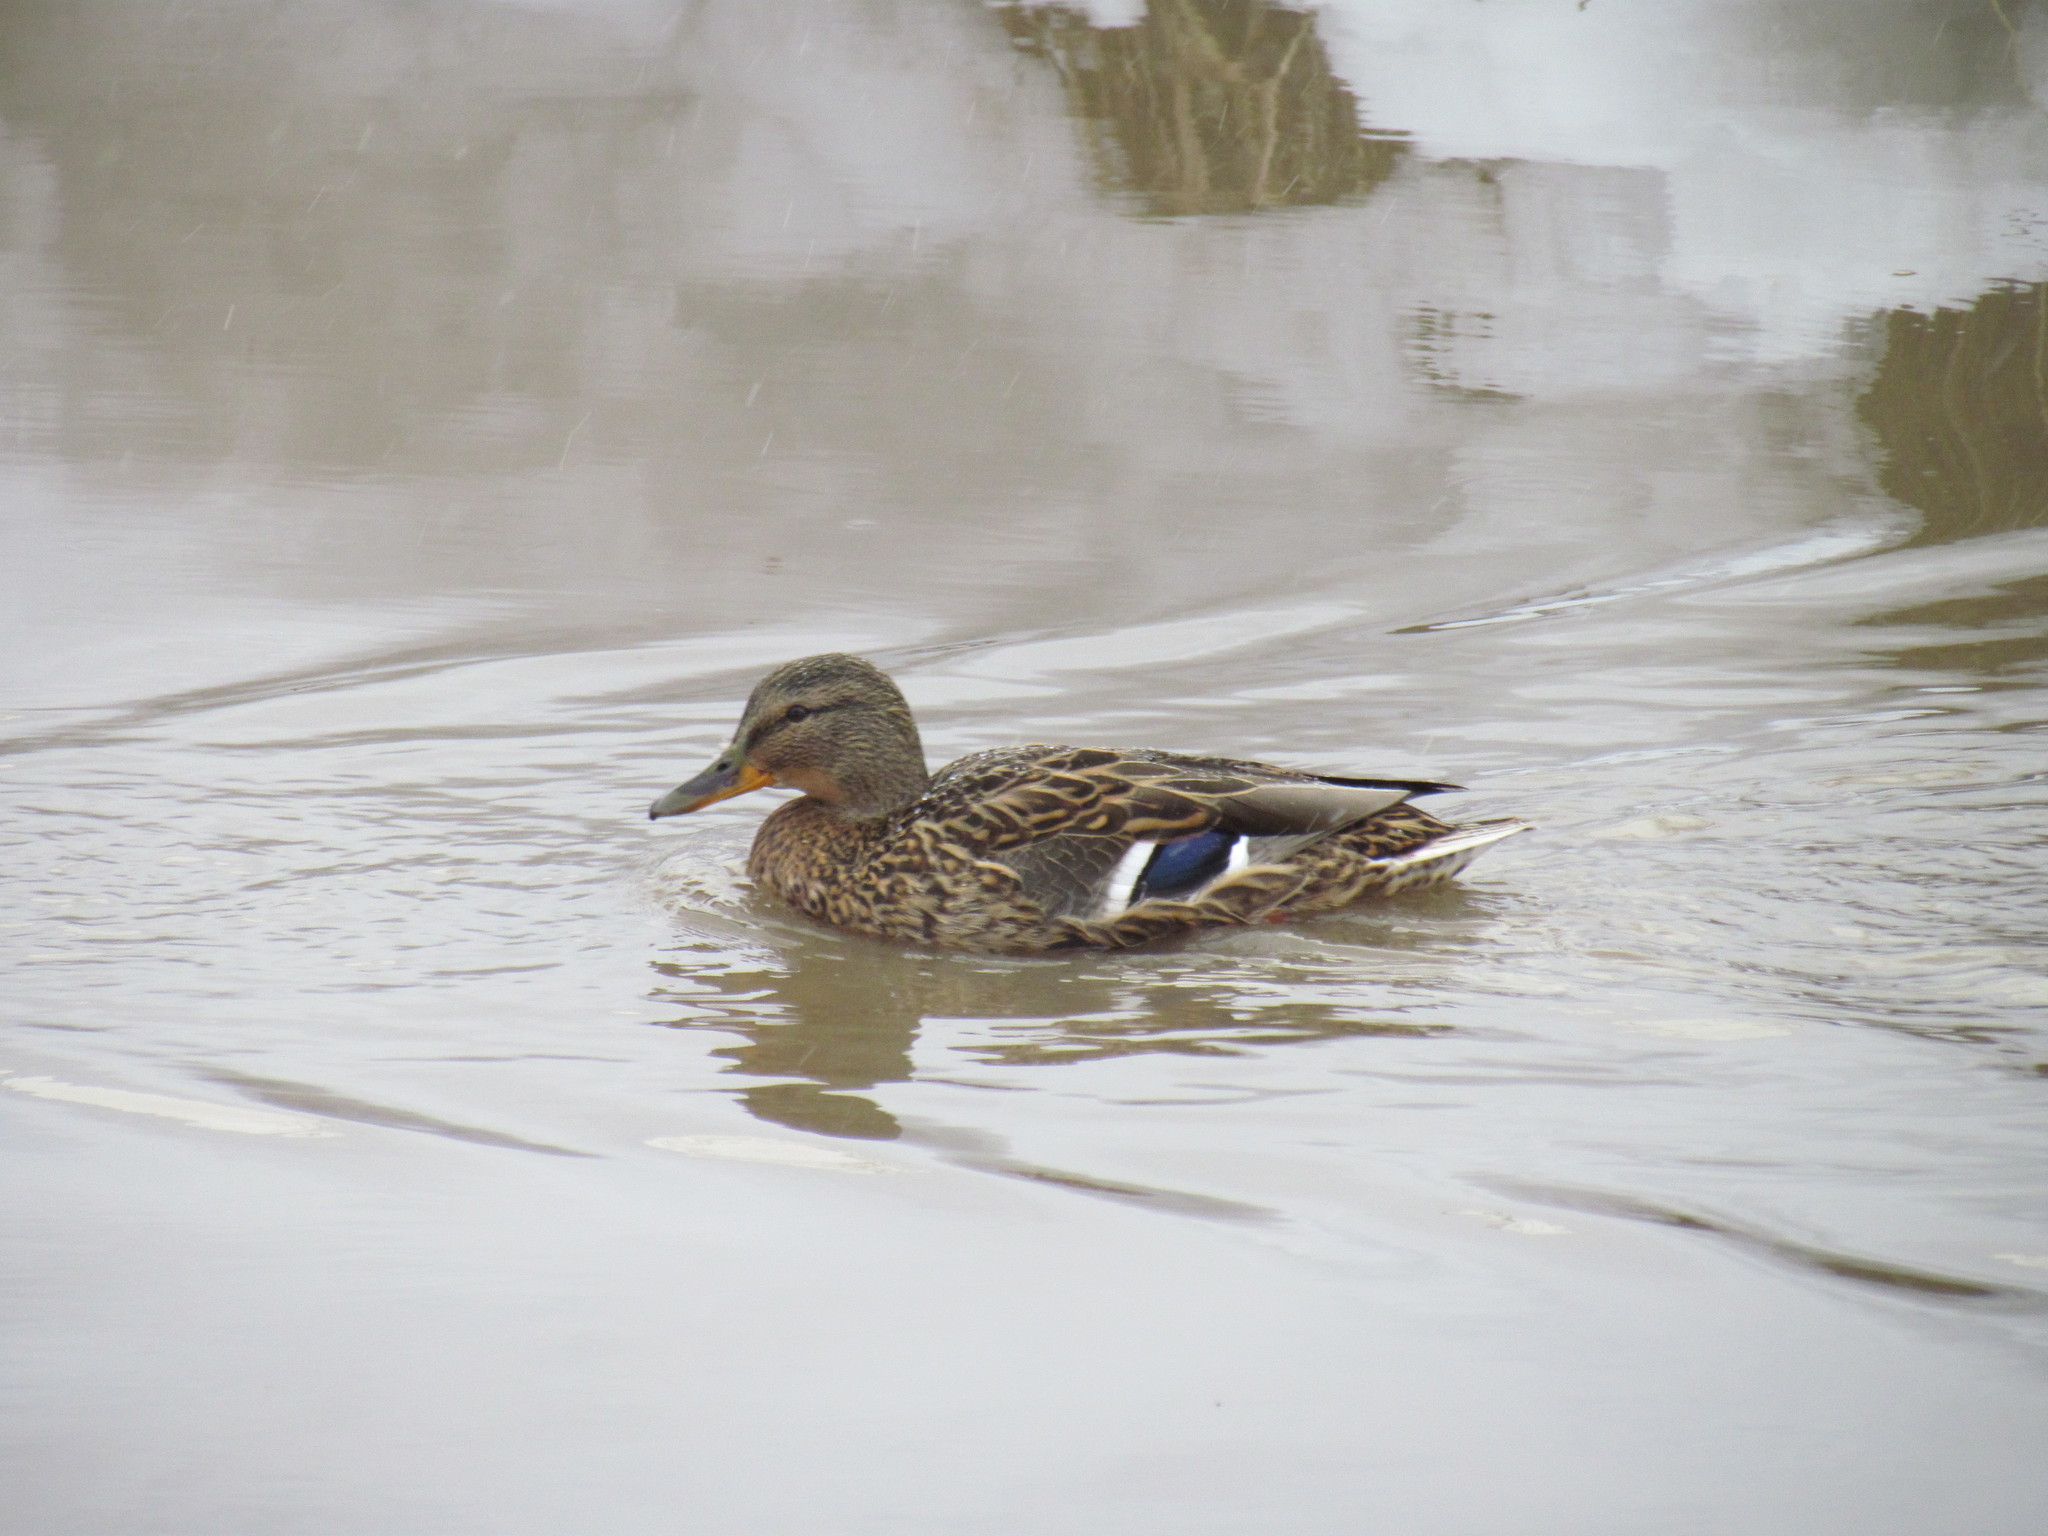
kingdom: Animalia
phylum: Chordata
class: Aves
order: Anseriformes
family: Anatidae
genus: Anas
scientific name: Anas platyrhynchos
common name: Mallard
